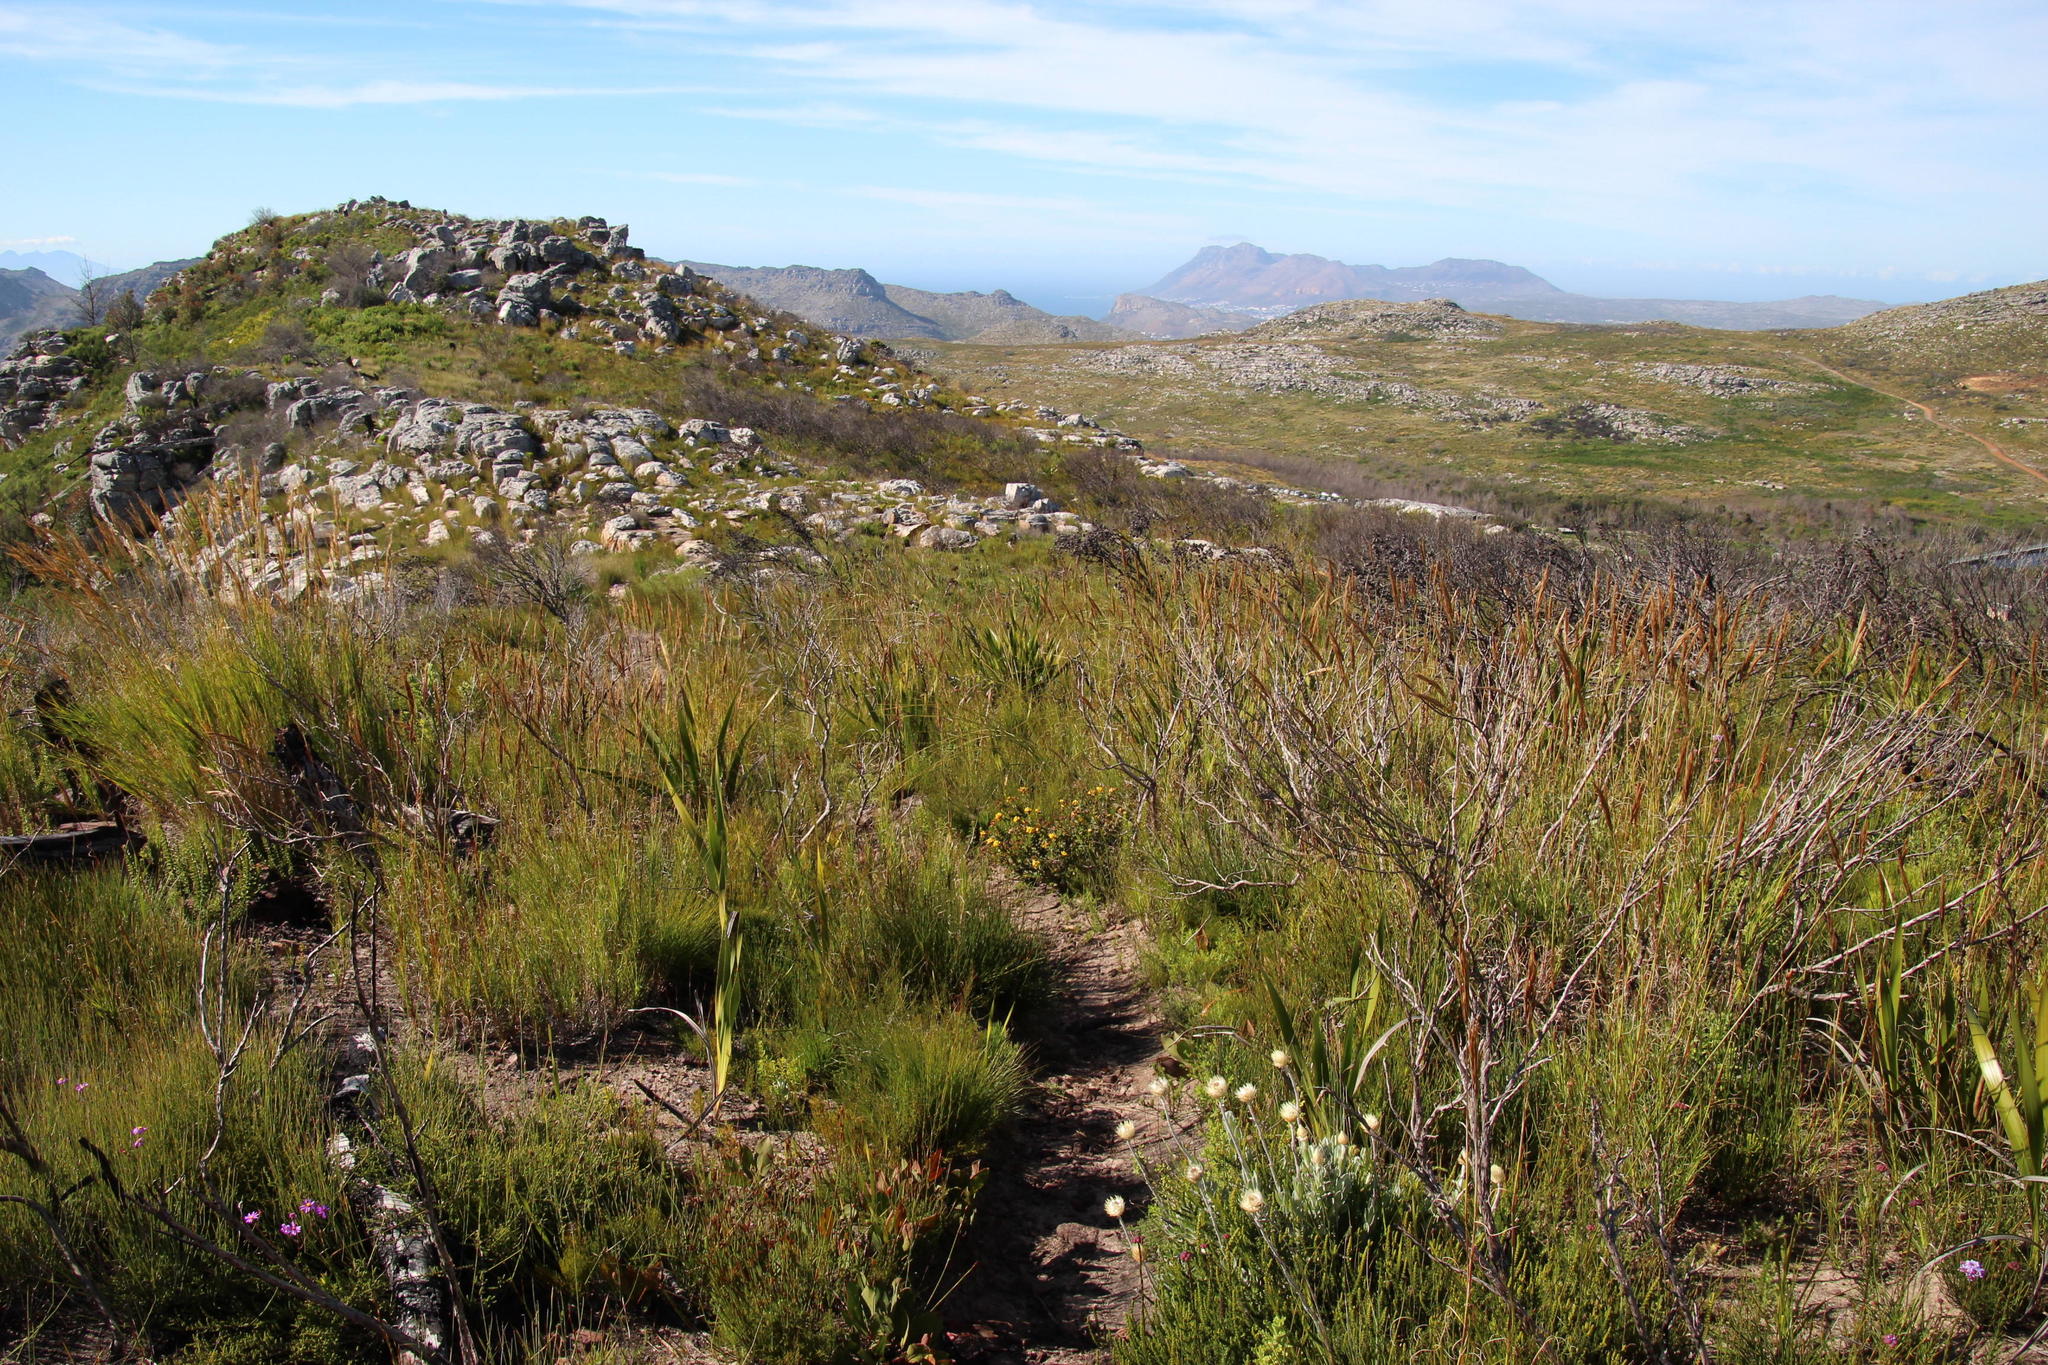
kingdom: Plantae
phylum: Tracheophyta
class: Magnoliopsida
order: Fabales
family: Fabaceae
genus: Aspalathus
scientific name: Aspalathus crenata
